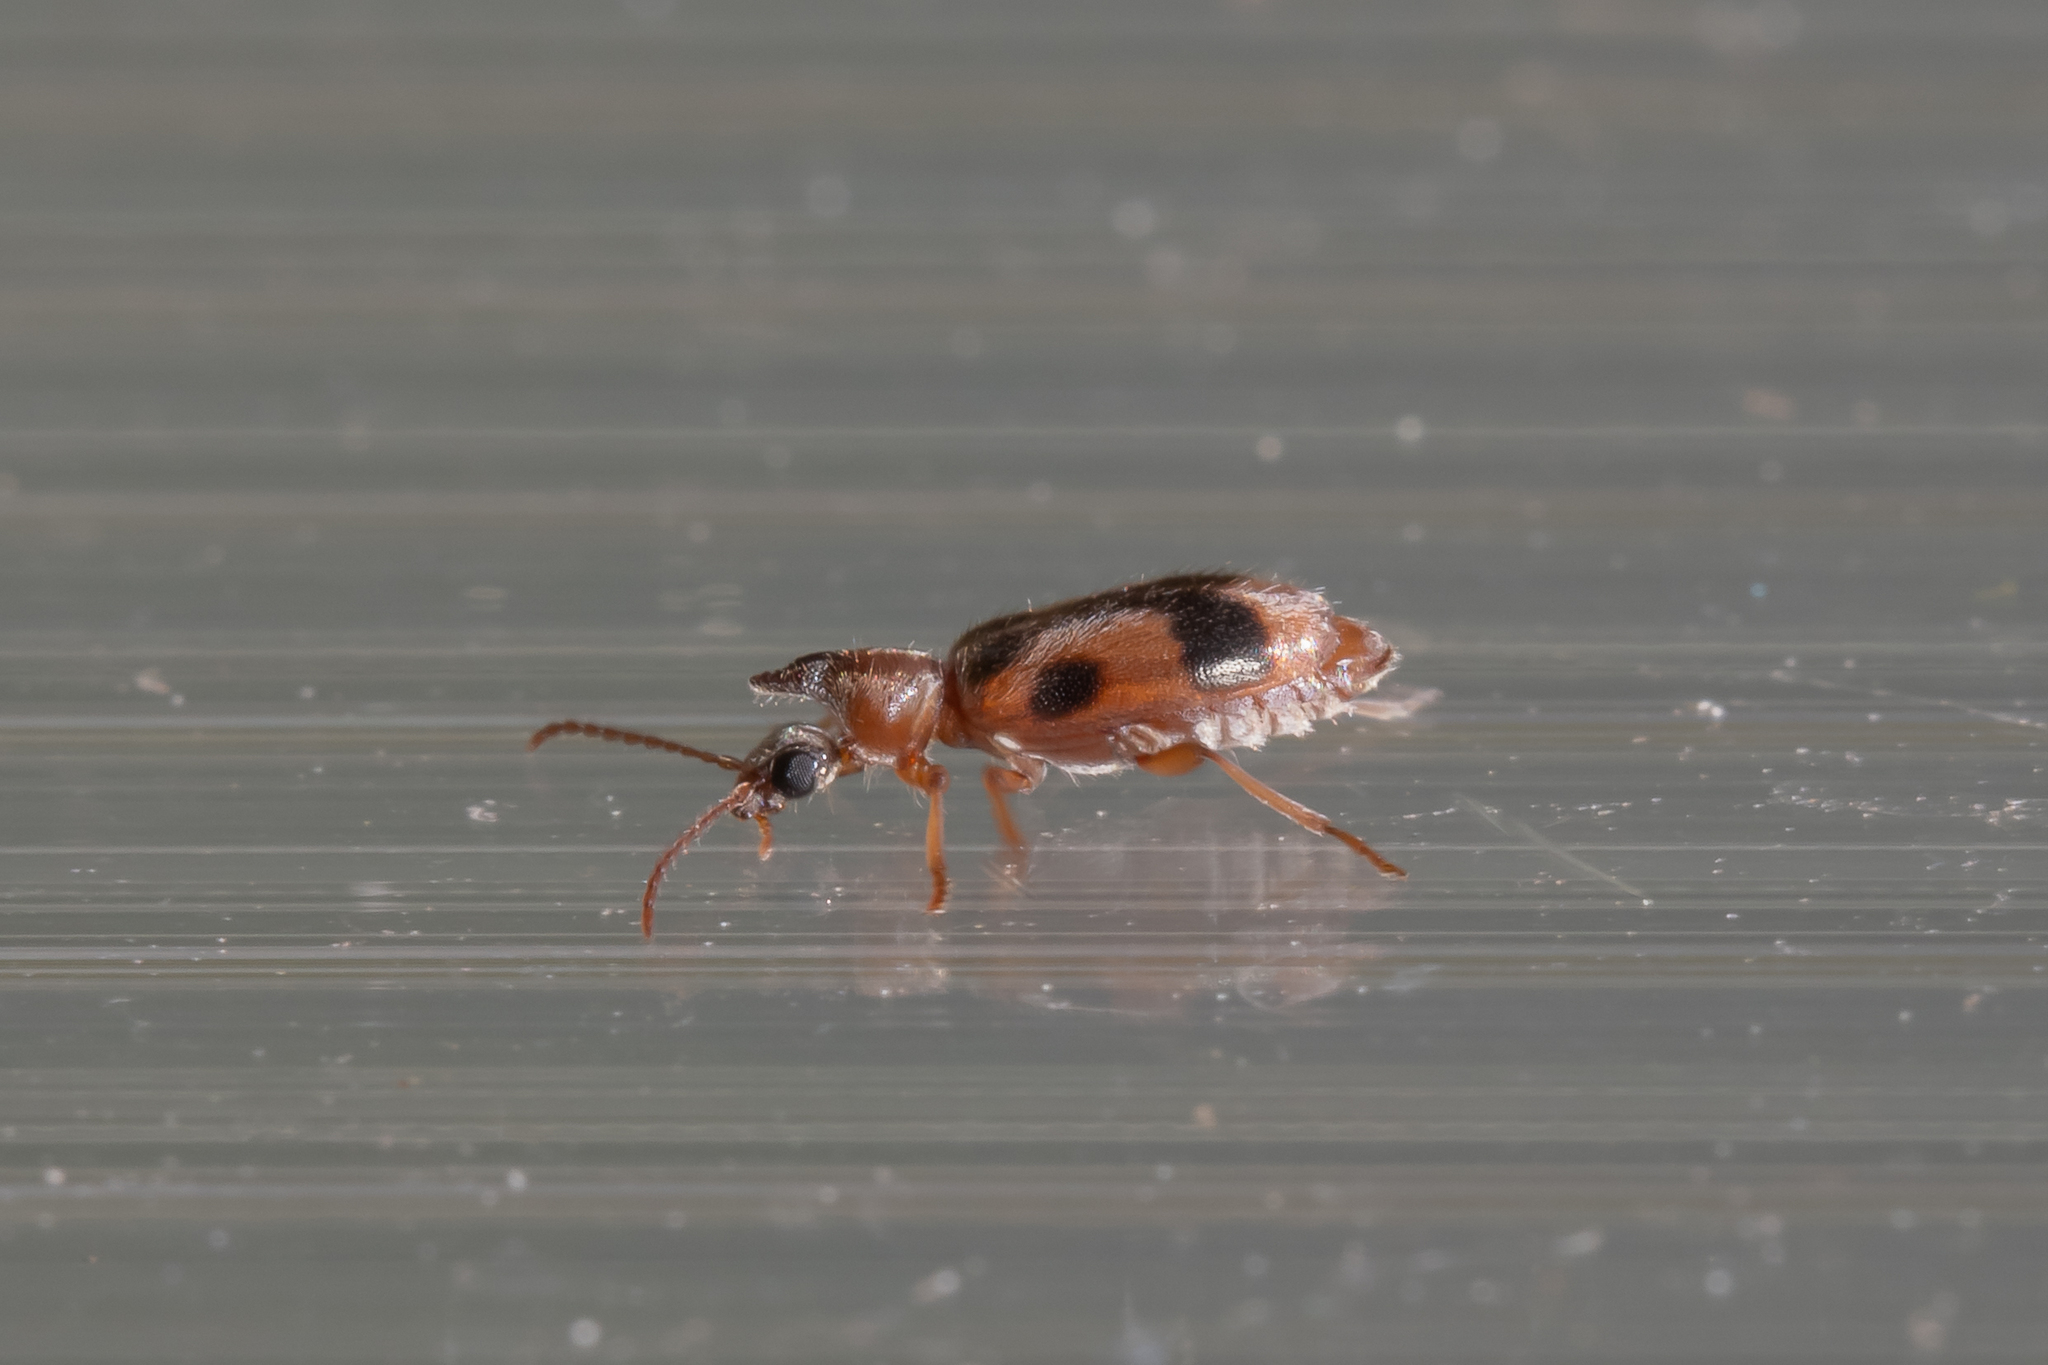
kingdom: Animalia
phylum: Arthropoda
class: Insecta
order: Coleoptera
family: Anthicidae
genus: Notoxus
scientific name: Notoxus monoceros
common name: Monoceros beetle
